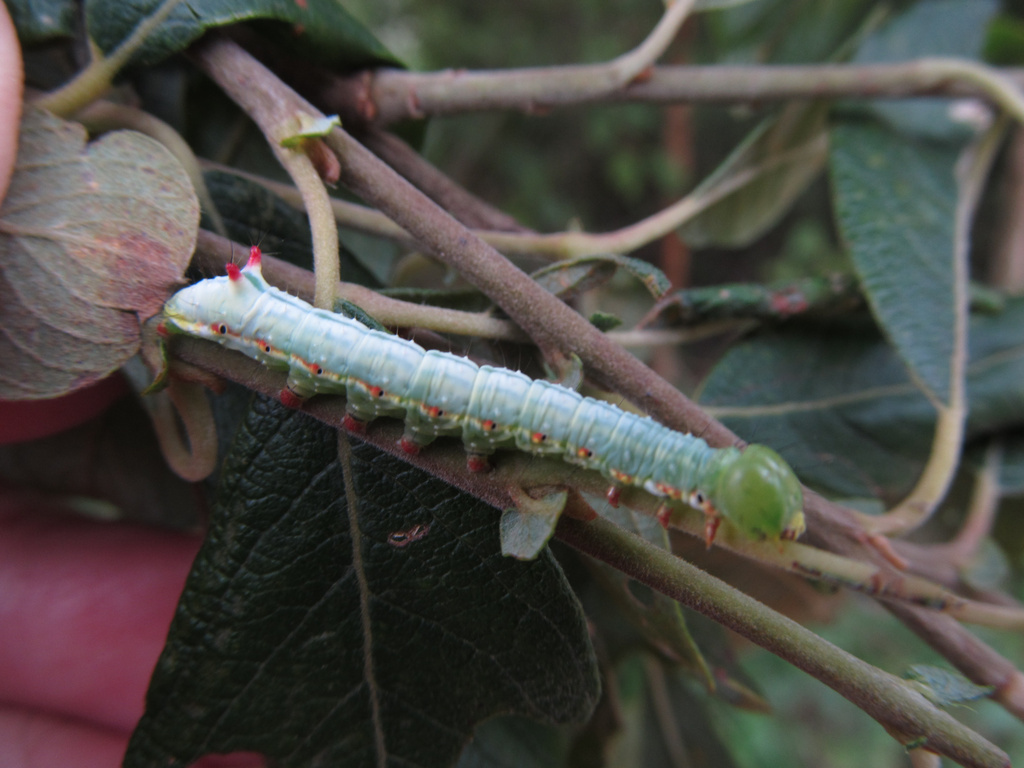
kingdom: Animalia
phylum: Arthropoda
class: Insecta
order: Lepidoptera
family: Notodontidae
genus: Ptilodon
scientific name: Ptilodon capucina
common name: Coxcomb prominent
